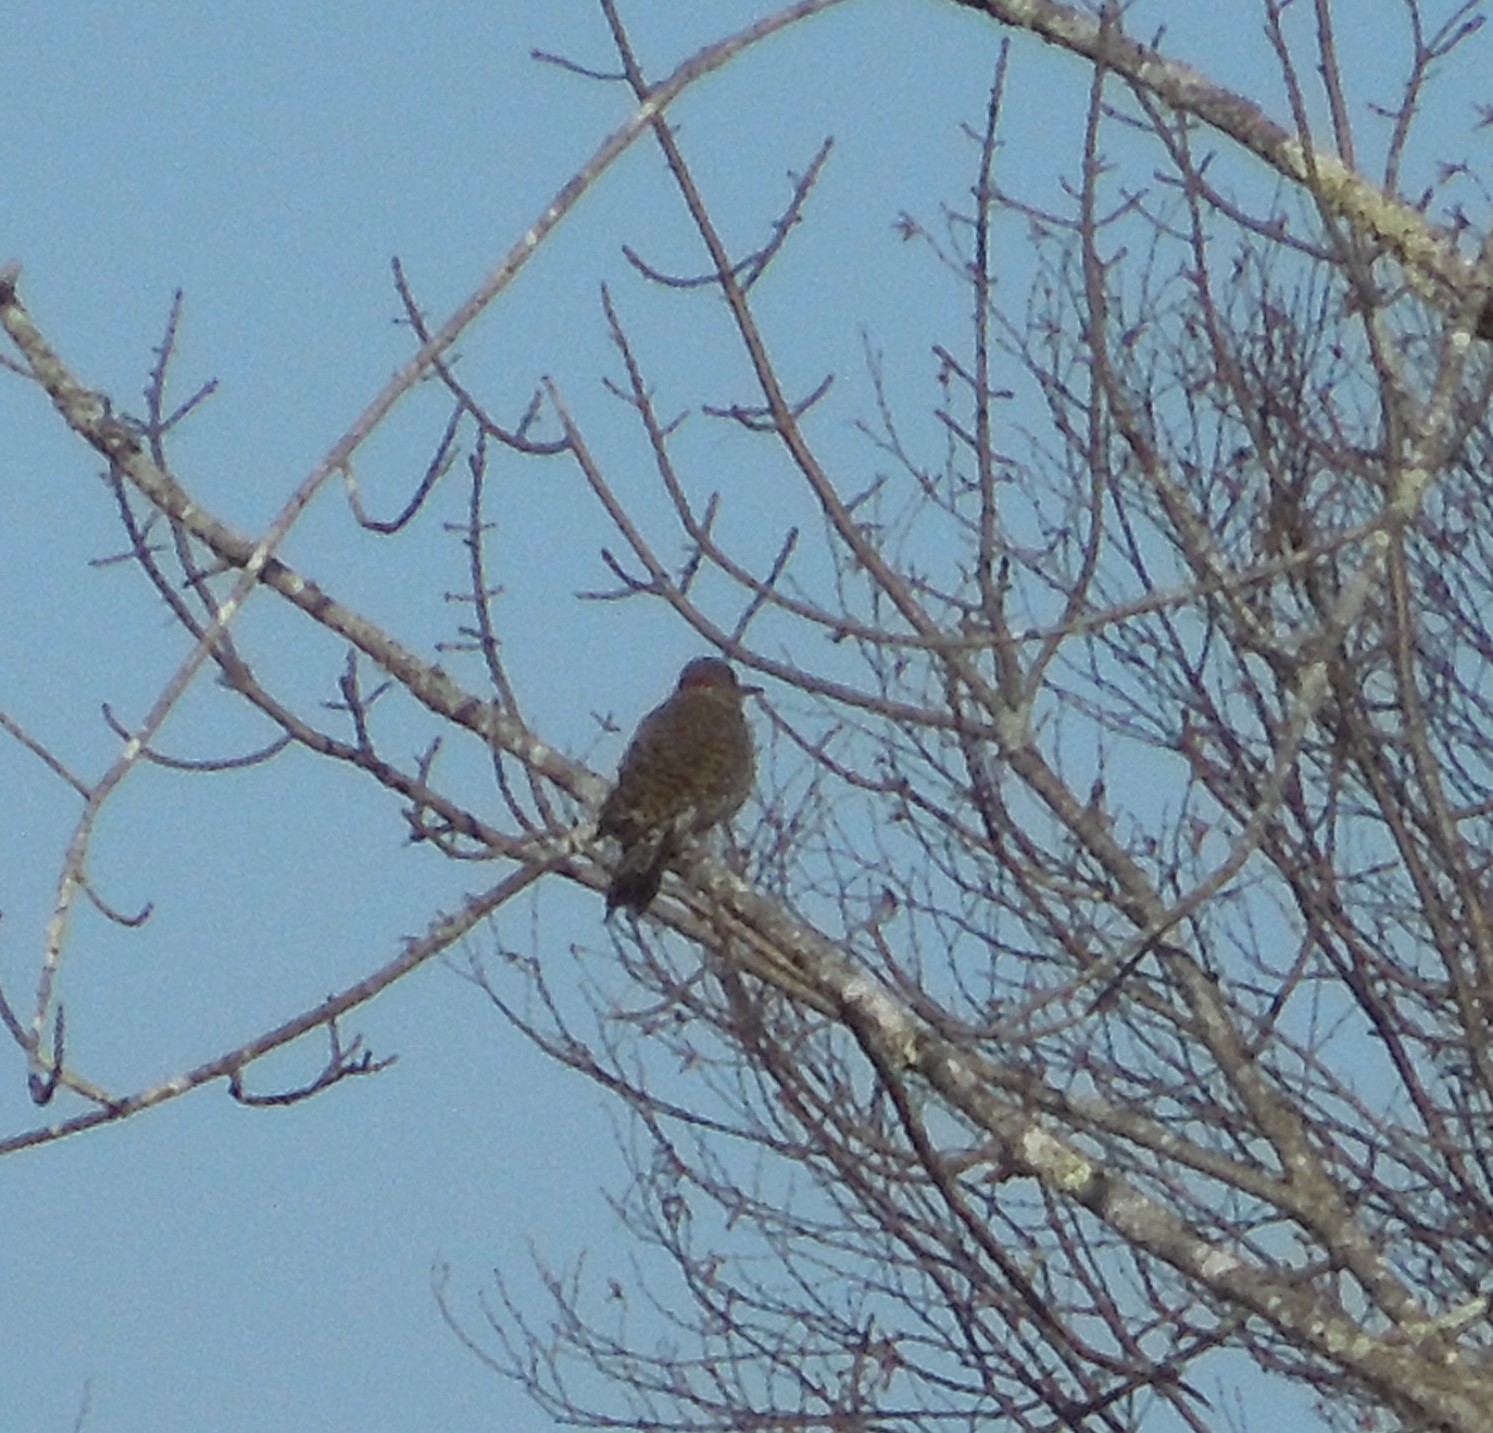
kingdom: Animalia
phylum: Chordata
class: Aves
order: Piciformes
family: Picidae
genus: Colaptes
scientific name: Colaptes auratus
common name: Northern flicker
